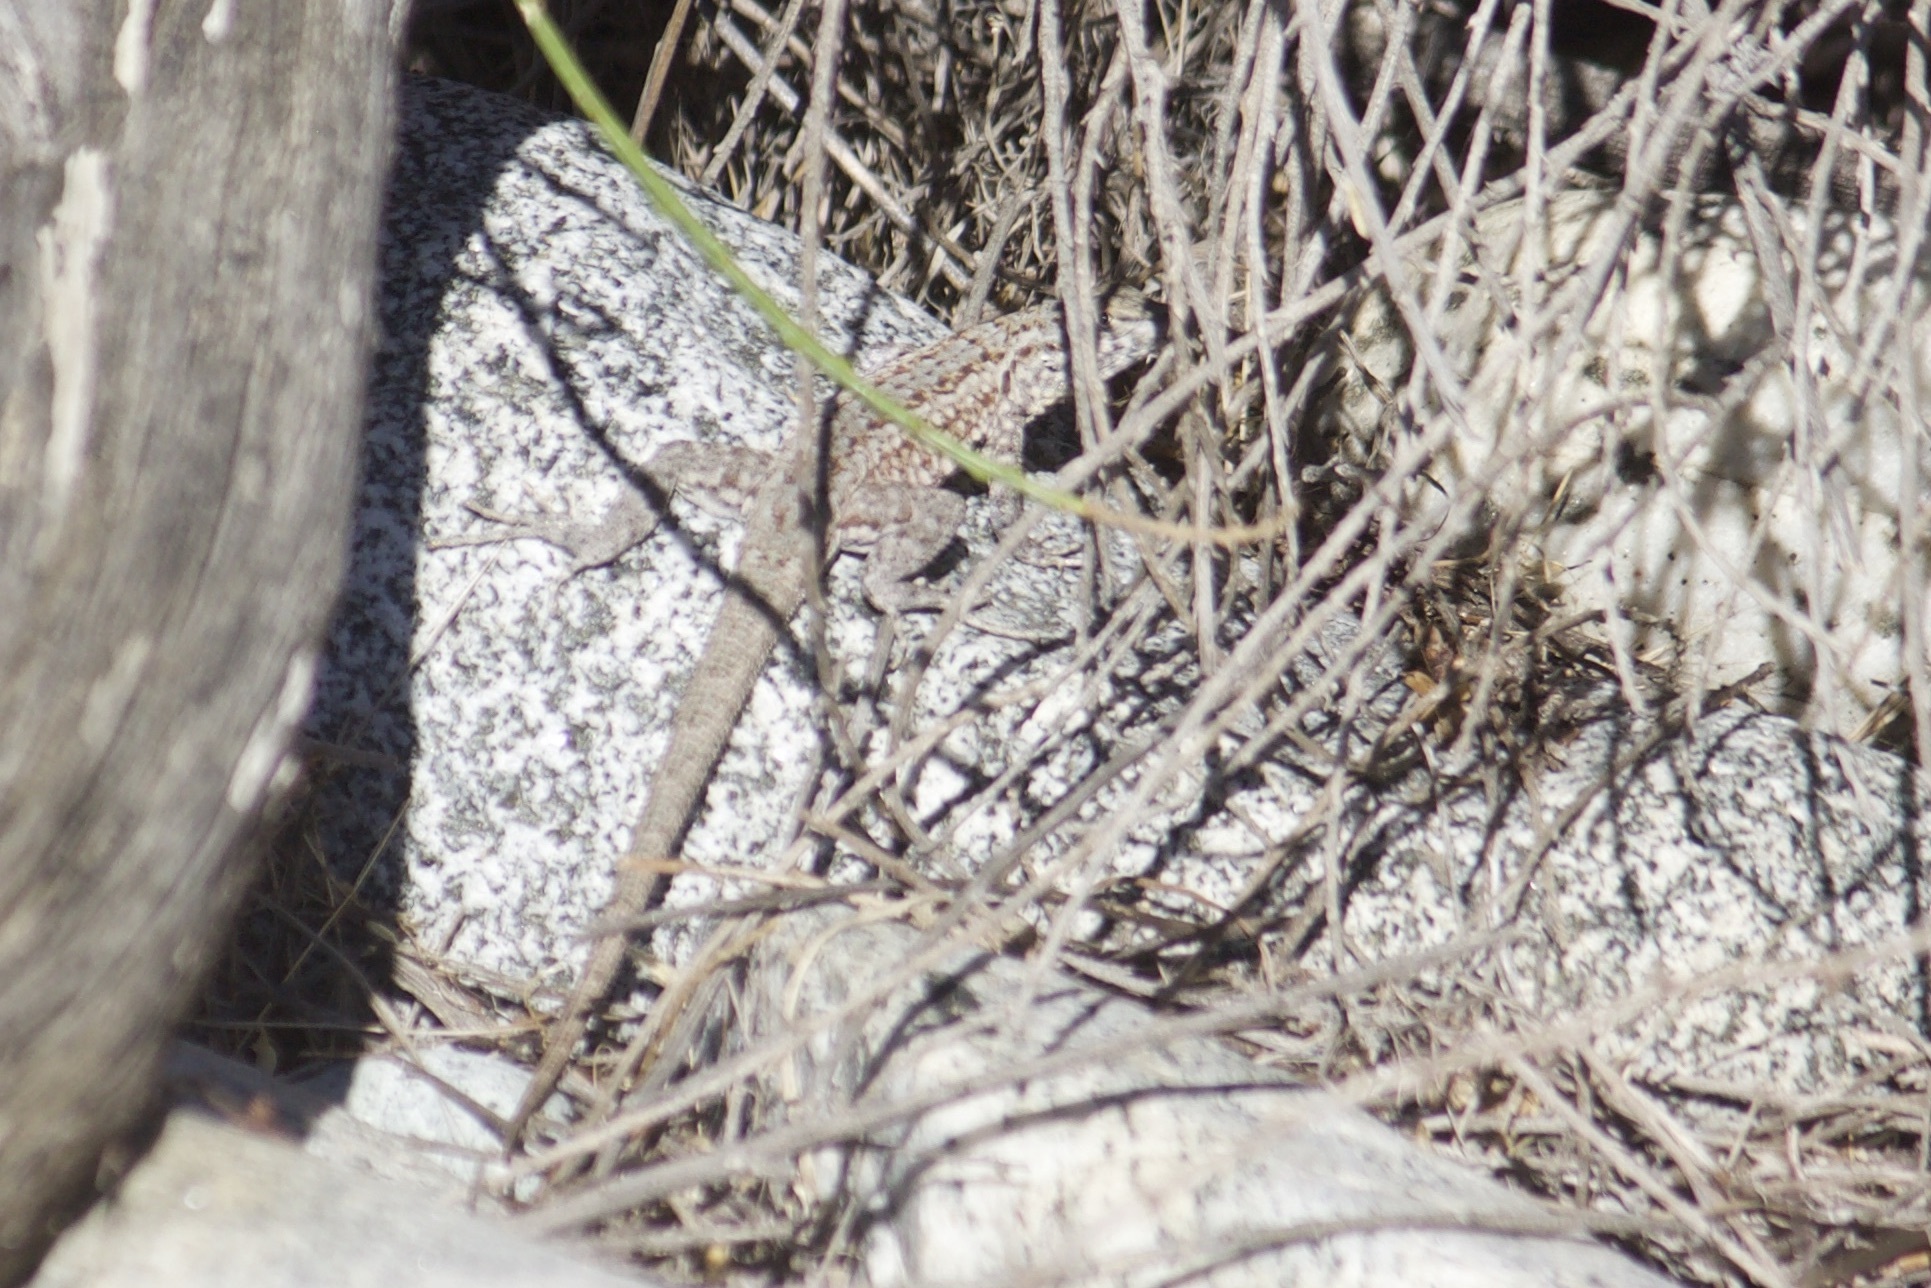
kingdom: Animalia
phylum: Chordata
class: Squamata
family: Phrynosomatidae
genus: Uta
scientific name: Uta stansburiana
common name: Side-blotched lizard
